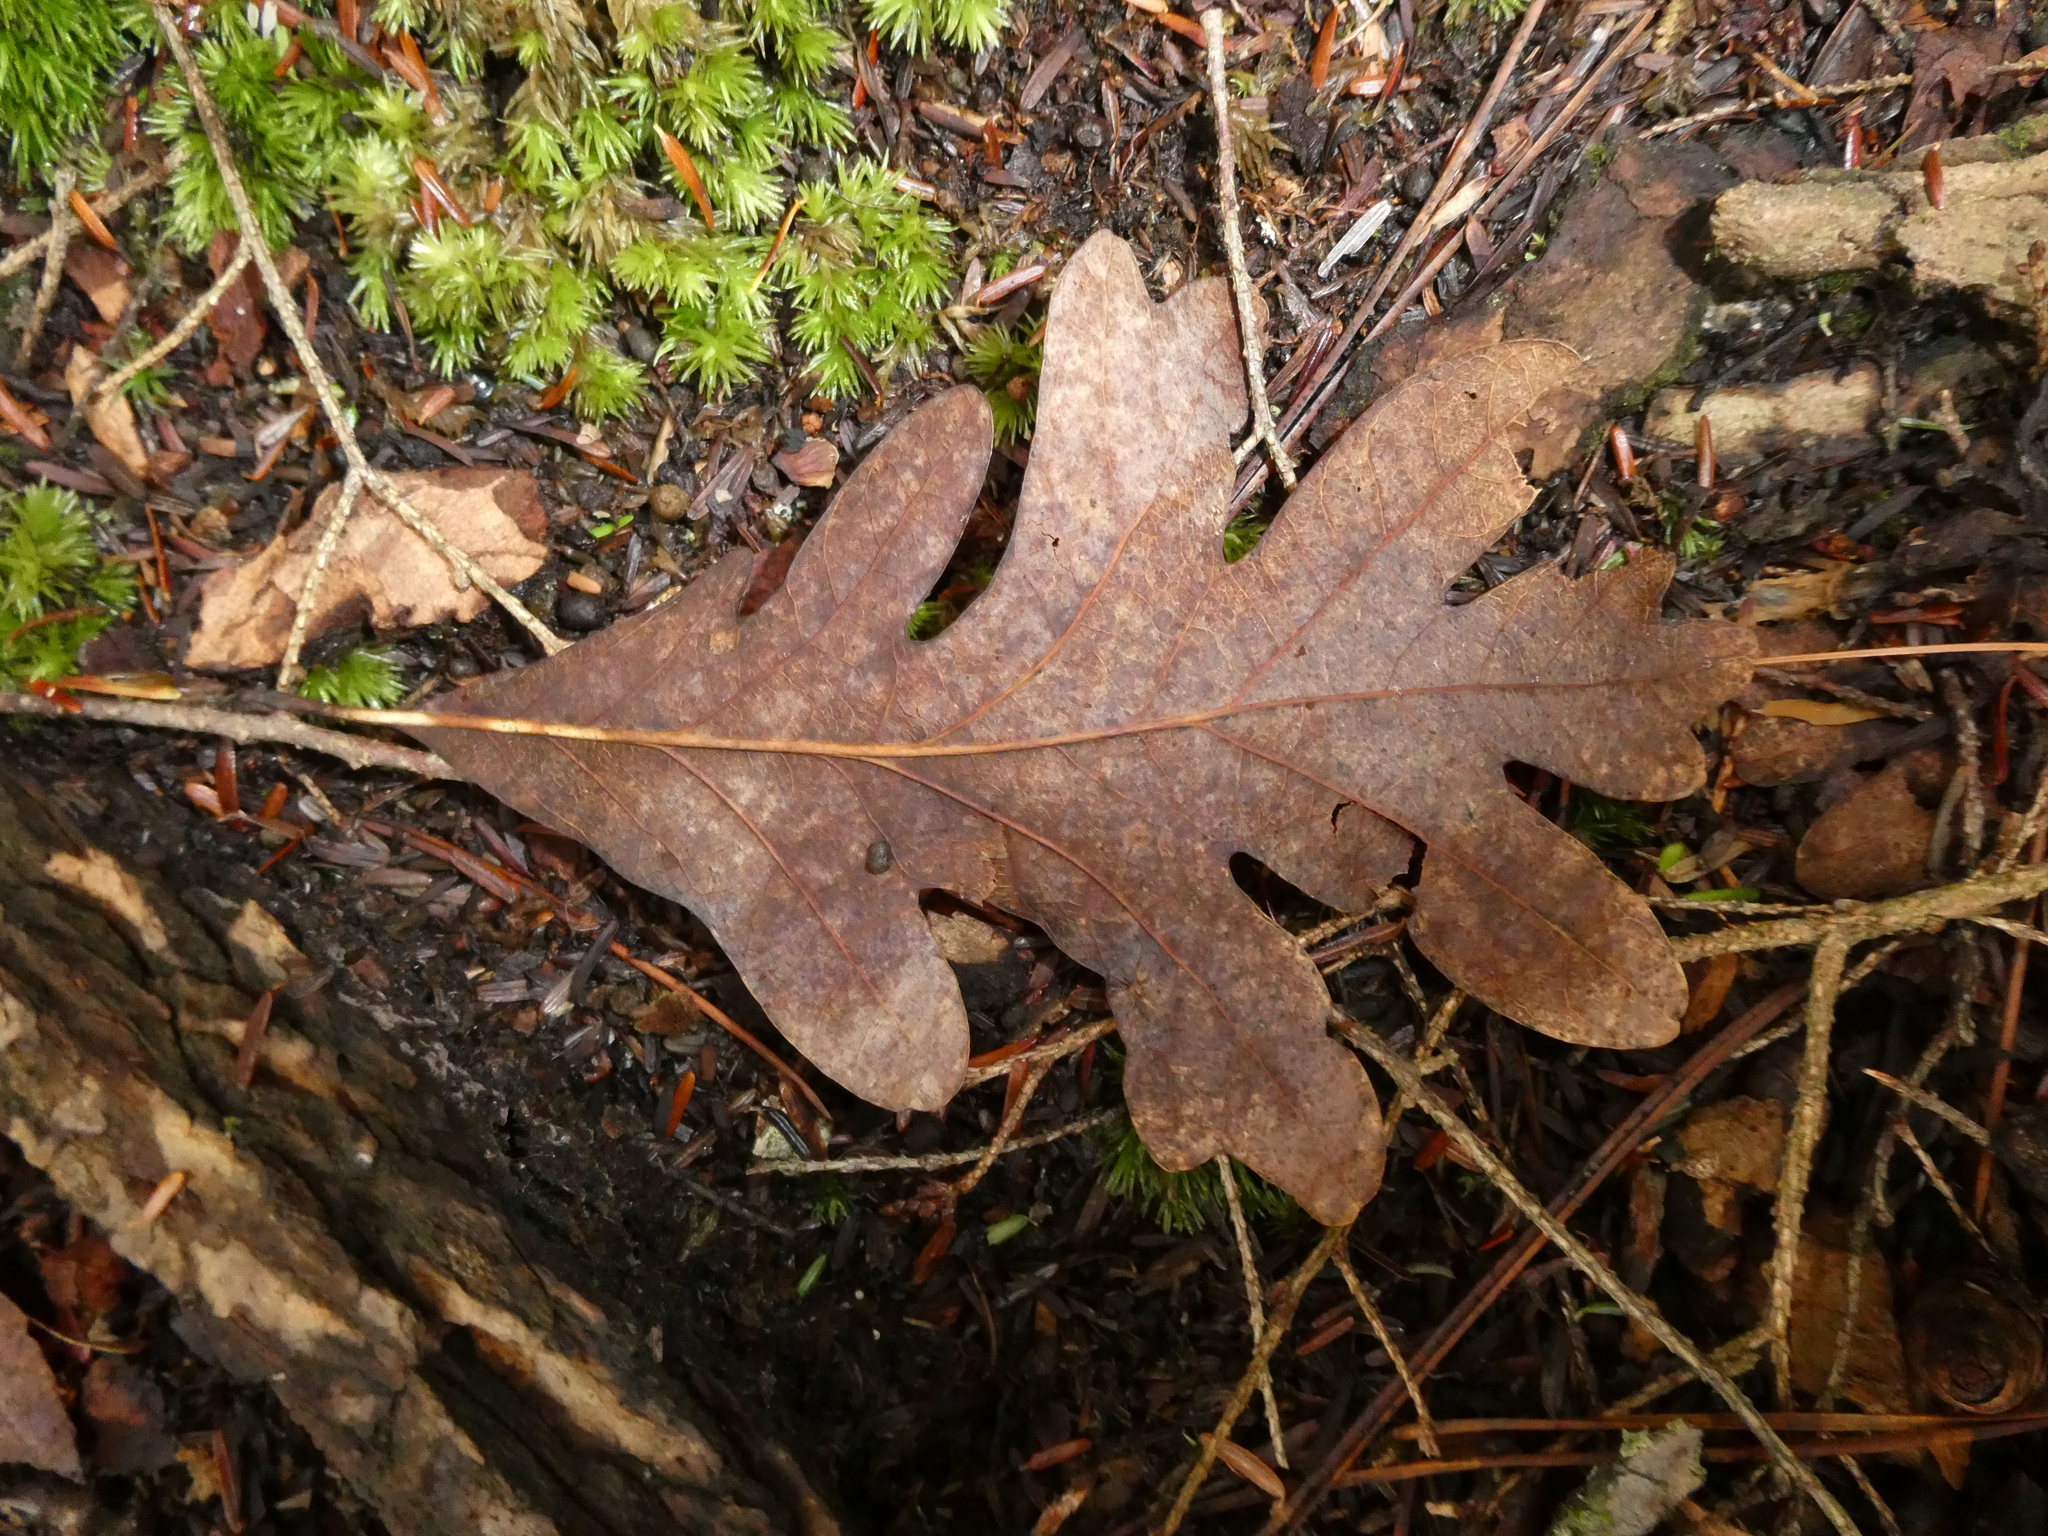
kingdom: Plantae
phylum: Tracheophyta
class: Magnoliopsida
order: Fagales
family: Fagaceae
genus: Quercus
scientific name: Quercus alba
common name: White oak
